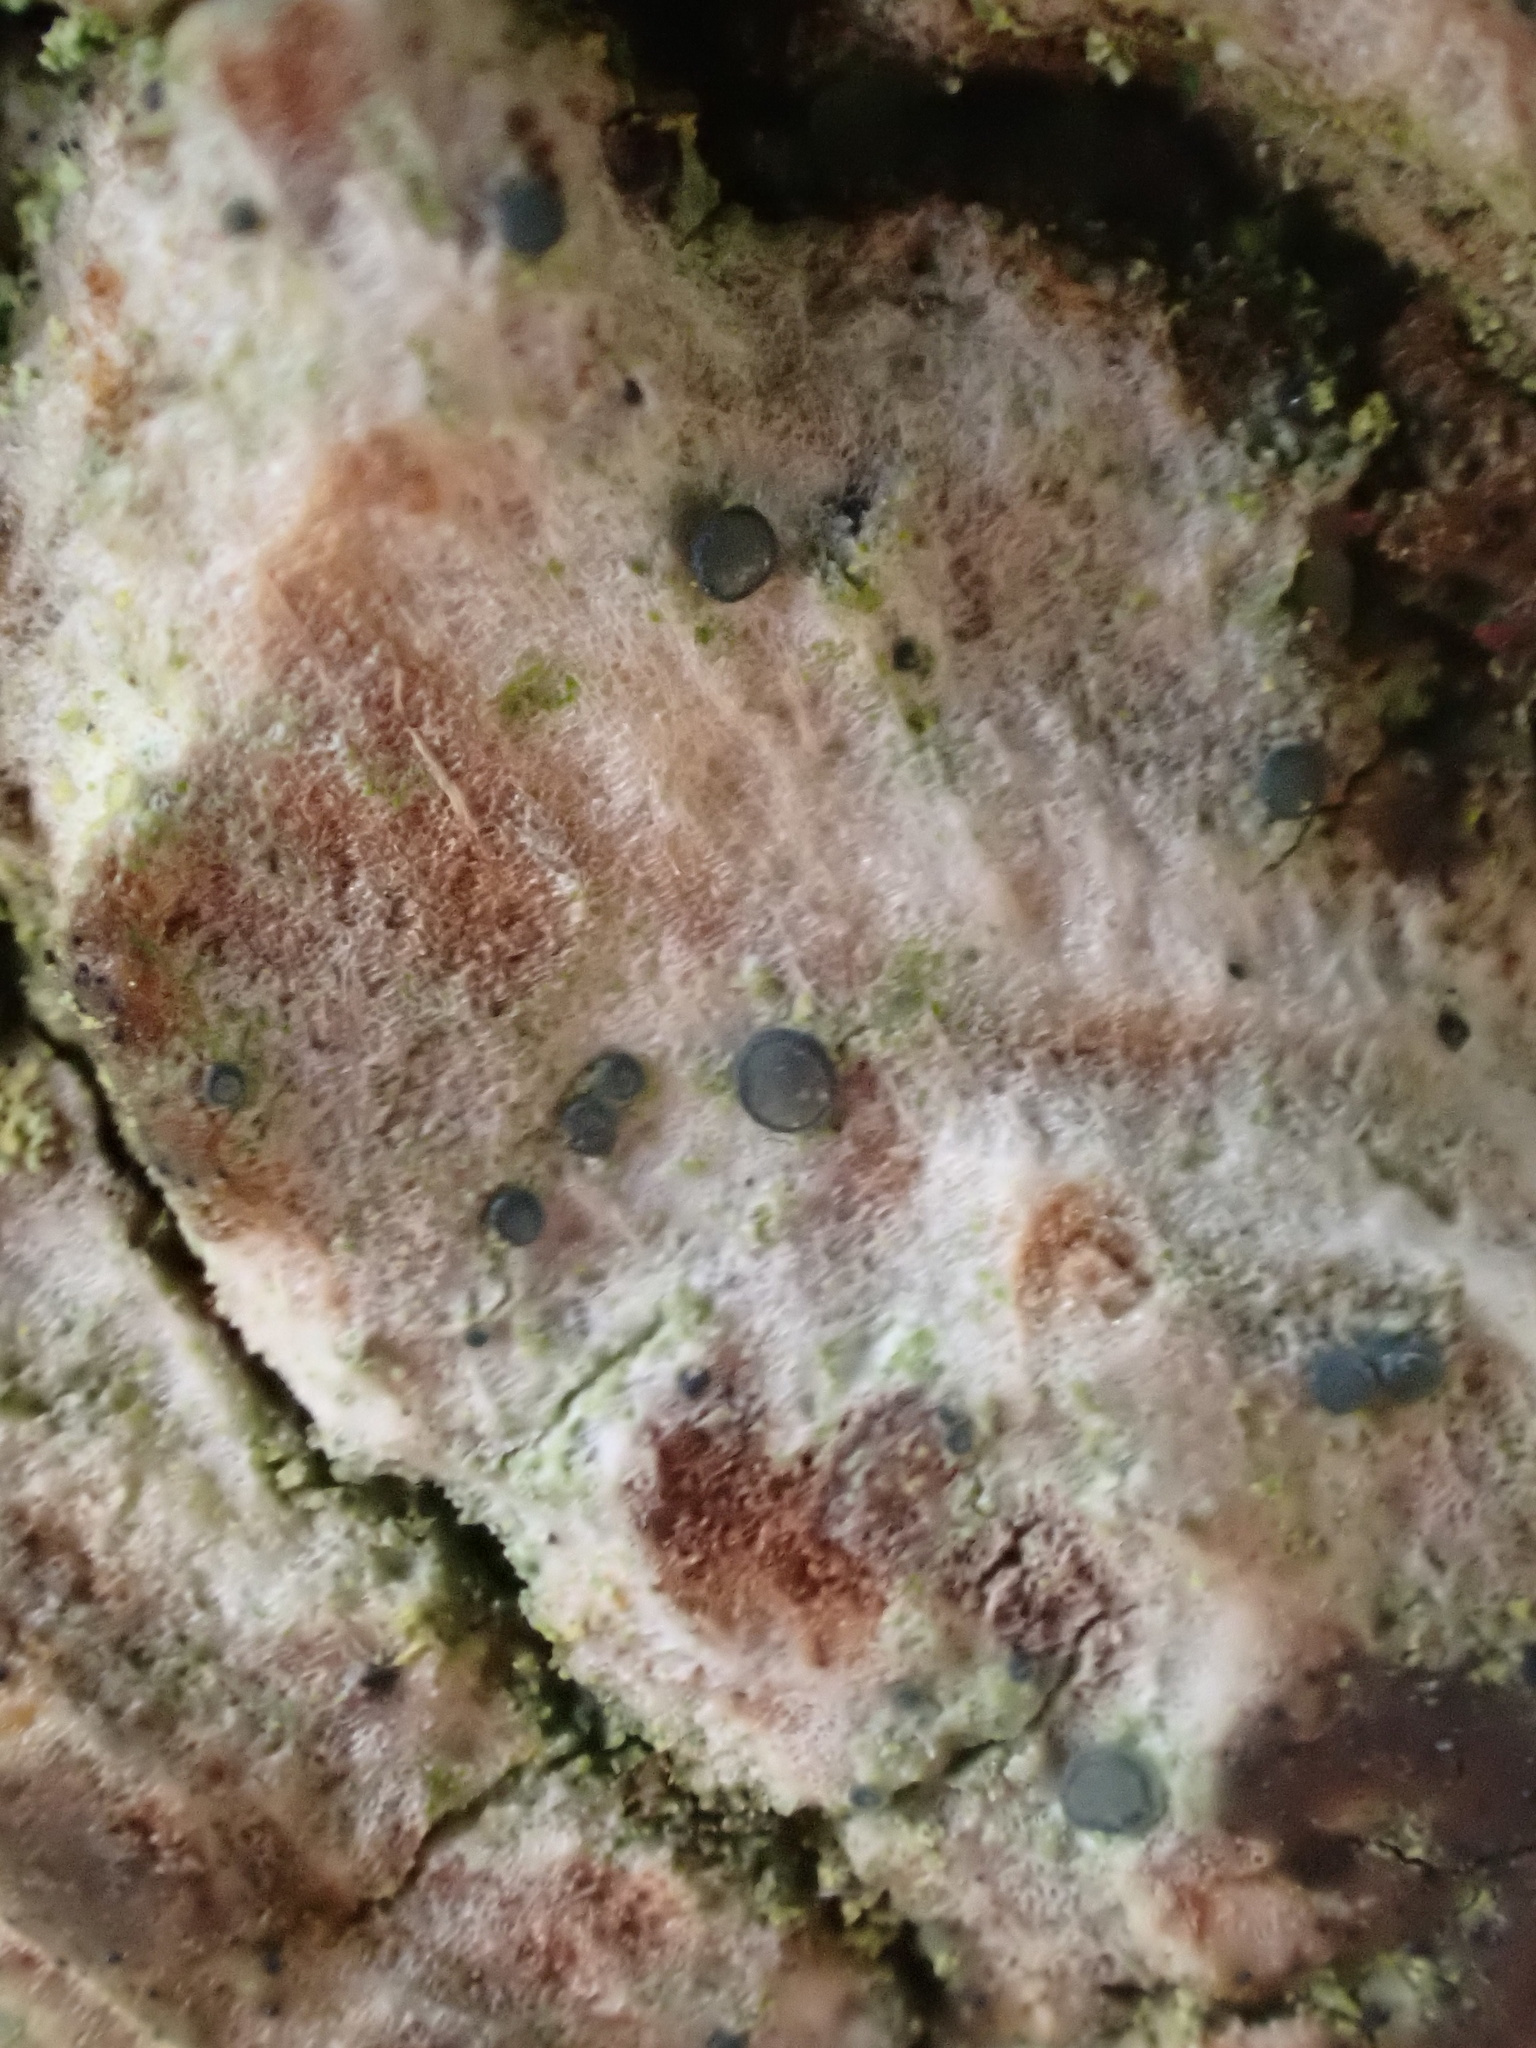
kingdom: Fungi
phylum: Ascomycota
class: Lecanoromycetes
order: Lecanorales
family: Ramalinaceae
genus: Bacidia
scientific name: Bacidia friesiana
